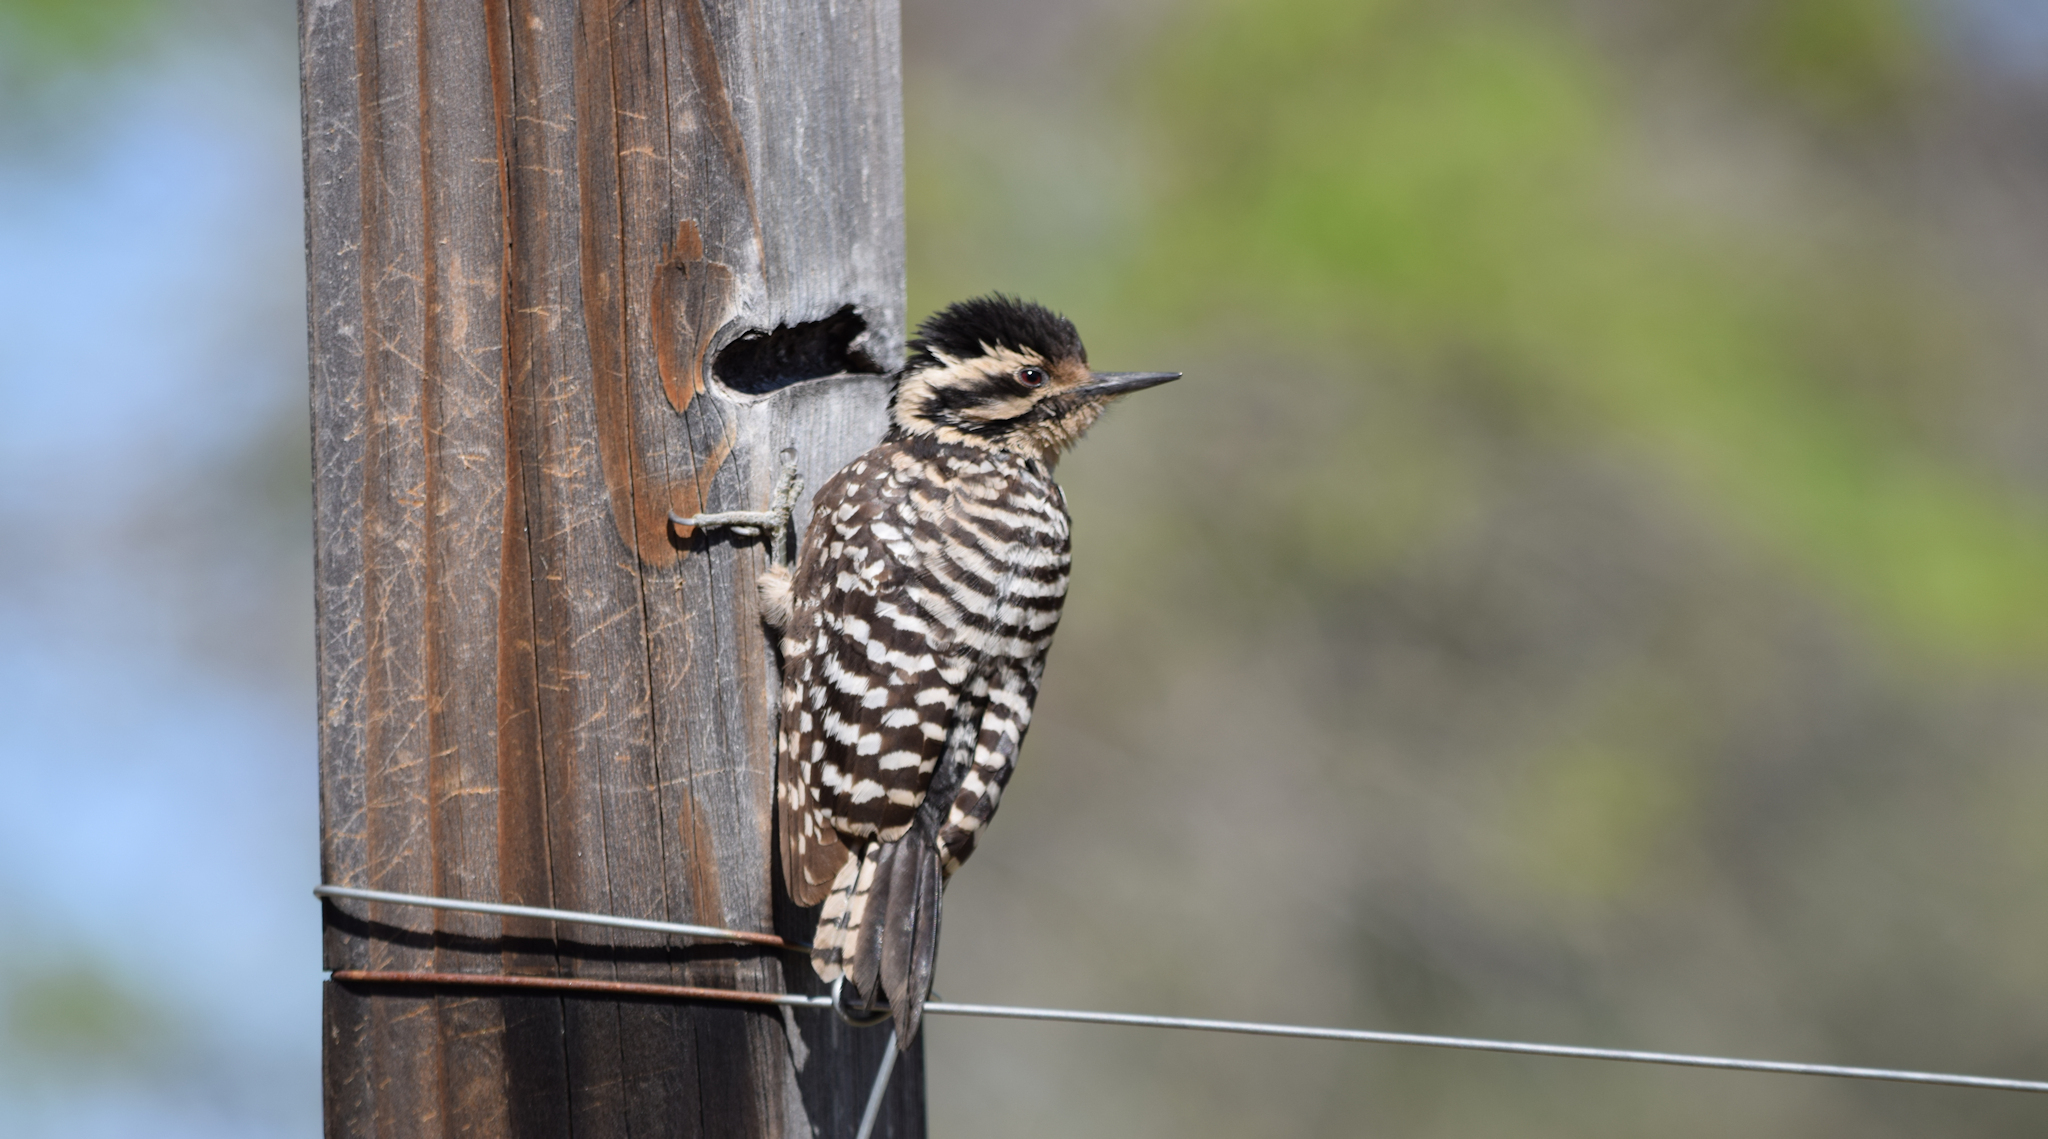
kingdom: Animalia
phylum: Chordata
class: Aves
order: Piciformes
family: Picidae
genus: Dryobates
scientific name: Dryobates scalaris
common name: Ladder-backed woodpecker
